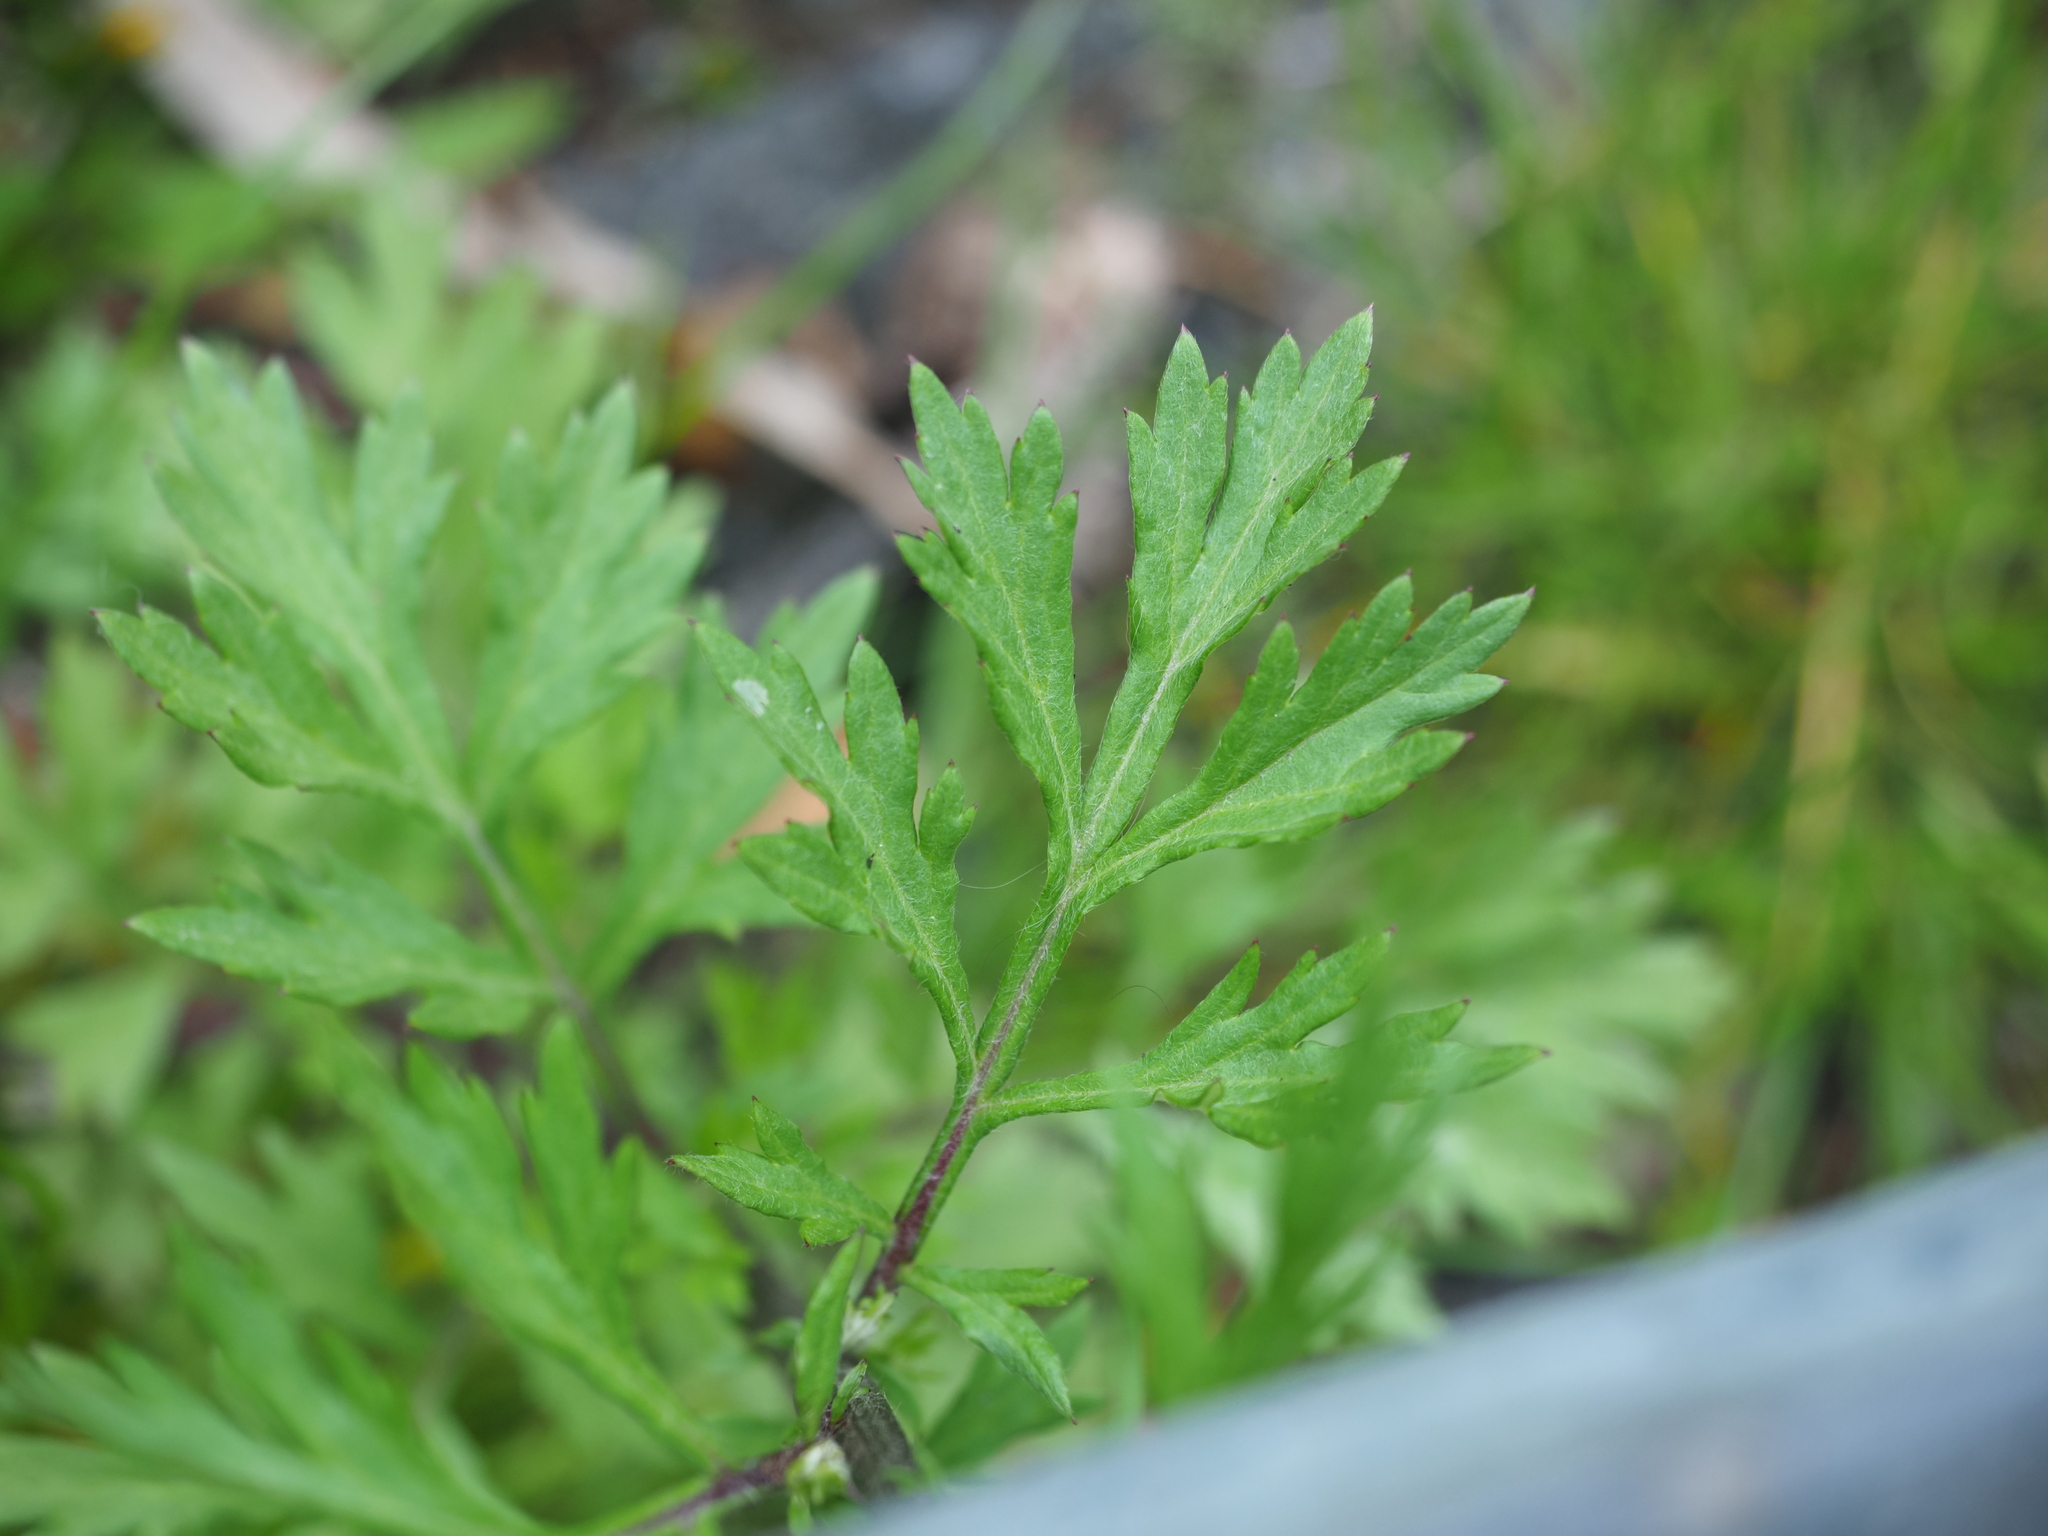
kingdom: Plantae
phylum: Tracheophyta
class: Magnoliopsida
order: Asterales
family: Asteraceae
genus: Artemisia
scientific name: Artemisia vulgaris
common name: Mugwort
